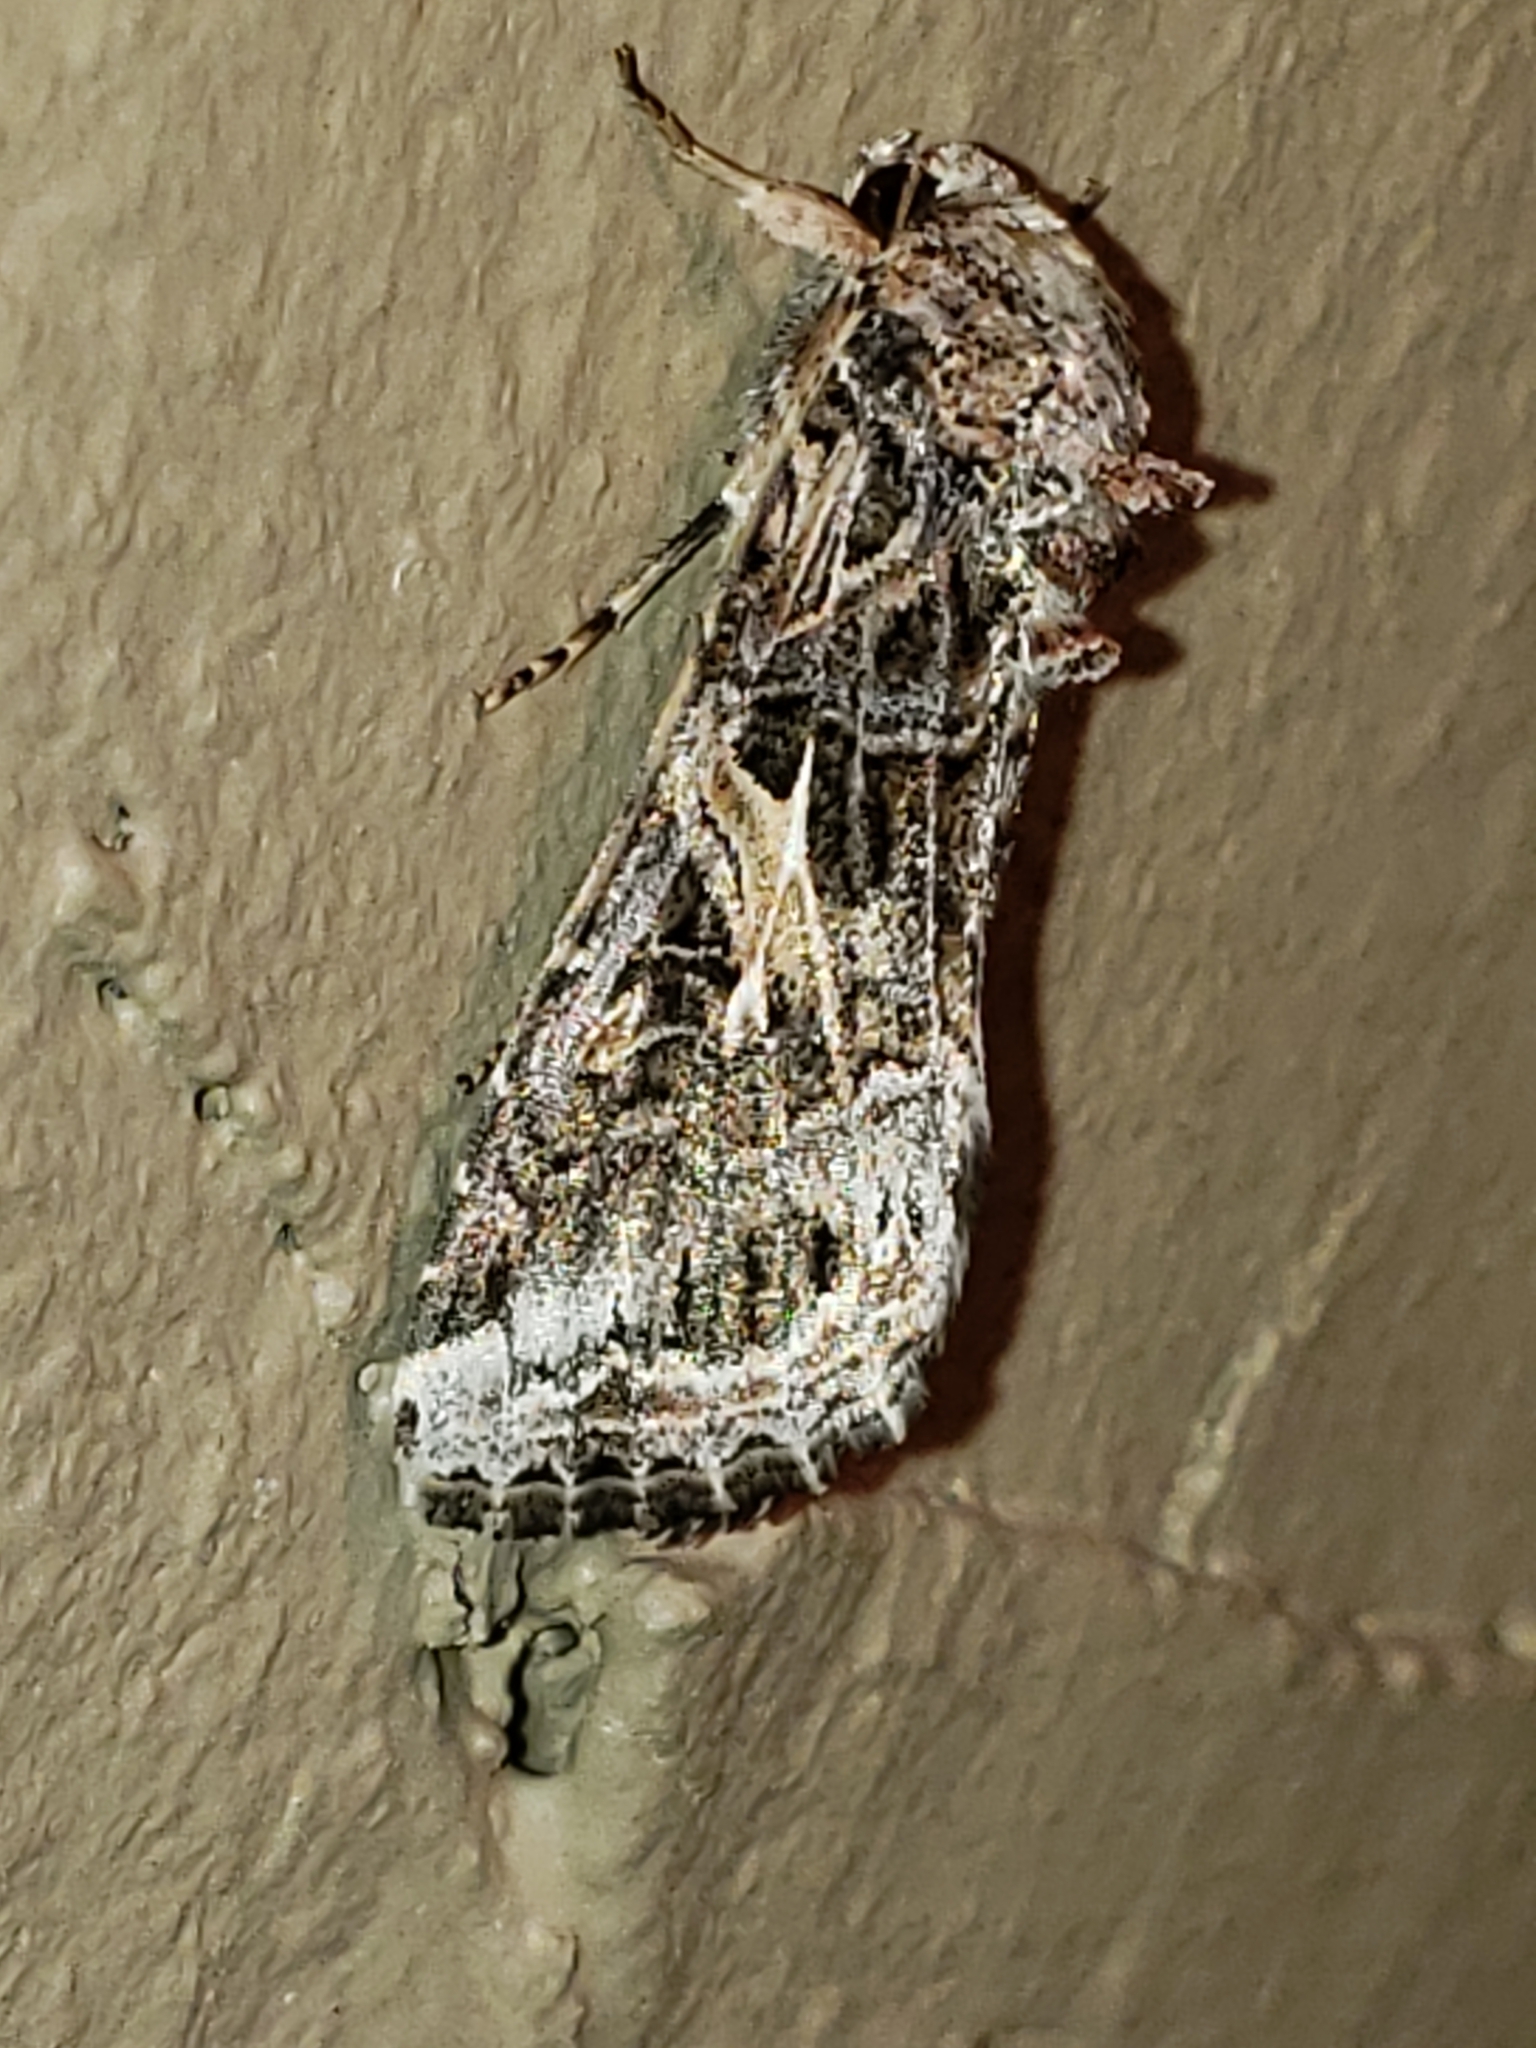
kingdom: Animalia
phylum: Arthropoda
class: Insecta
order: Lepidoptera
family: Noctuidae
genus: Spodoptera
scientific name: Spodoptera ornithogalli
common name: Yellow-striped armyworm
